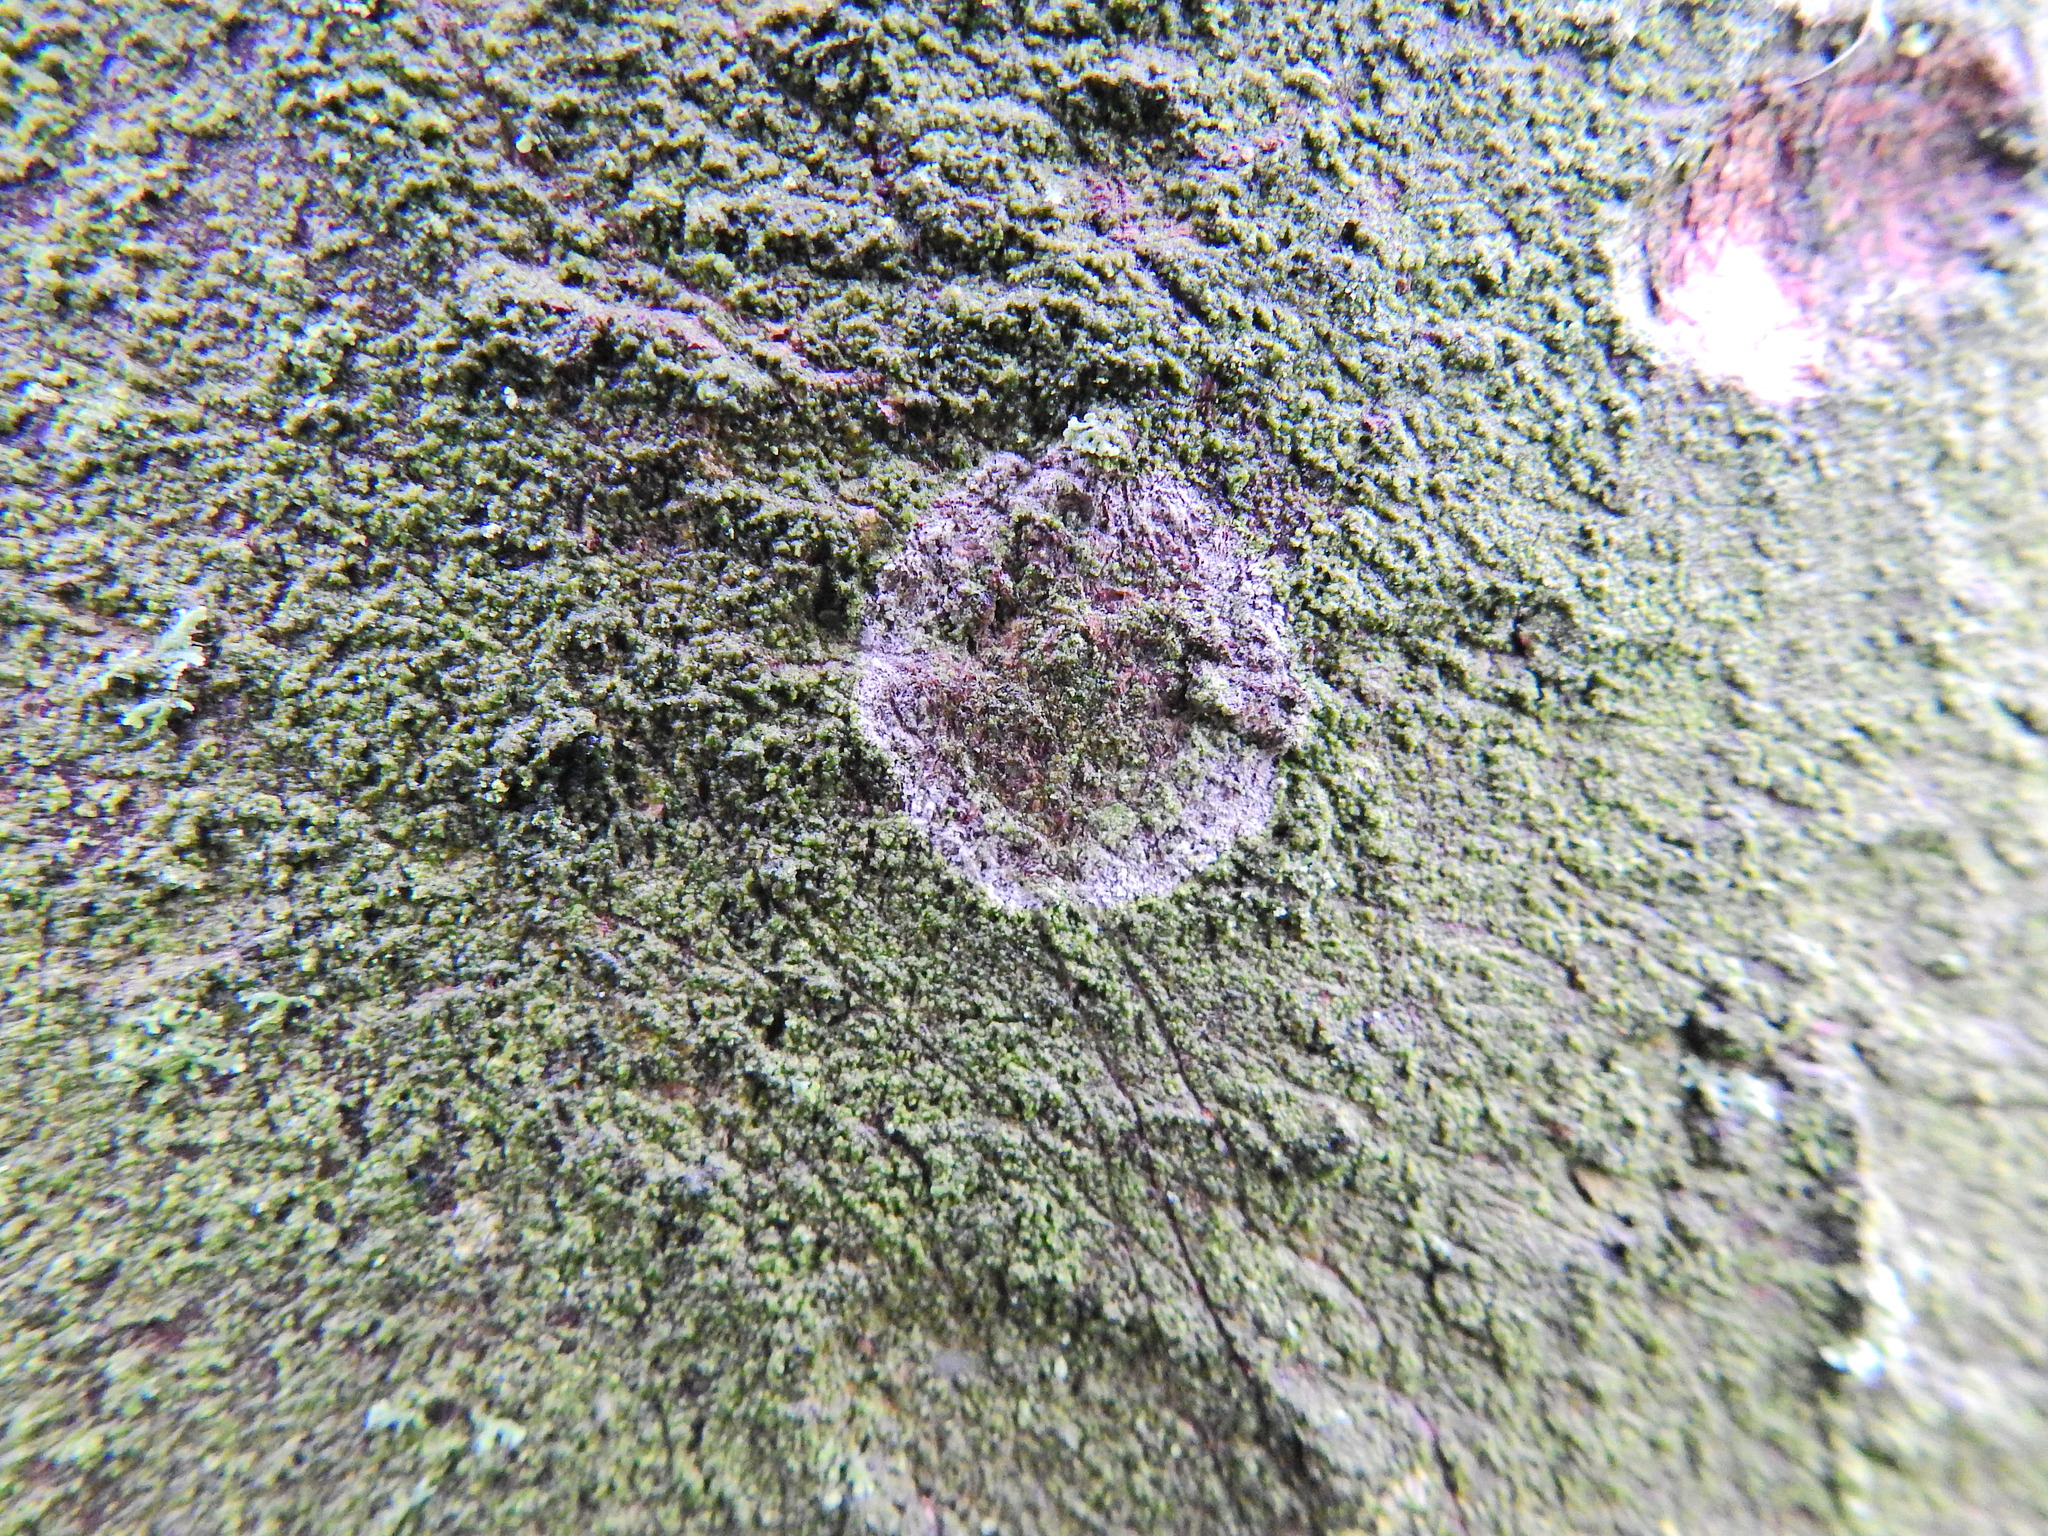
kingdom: Fungi
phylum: Basidiomycota
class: Agaricomycetes
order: Atheliales
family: Atheliaceae
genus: Athelia
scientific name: Athelia arachnoidea
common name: Candelabra duster
